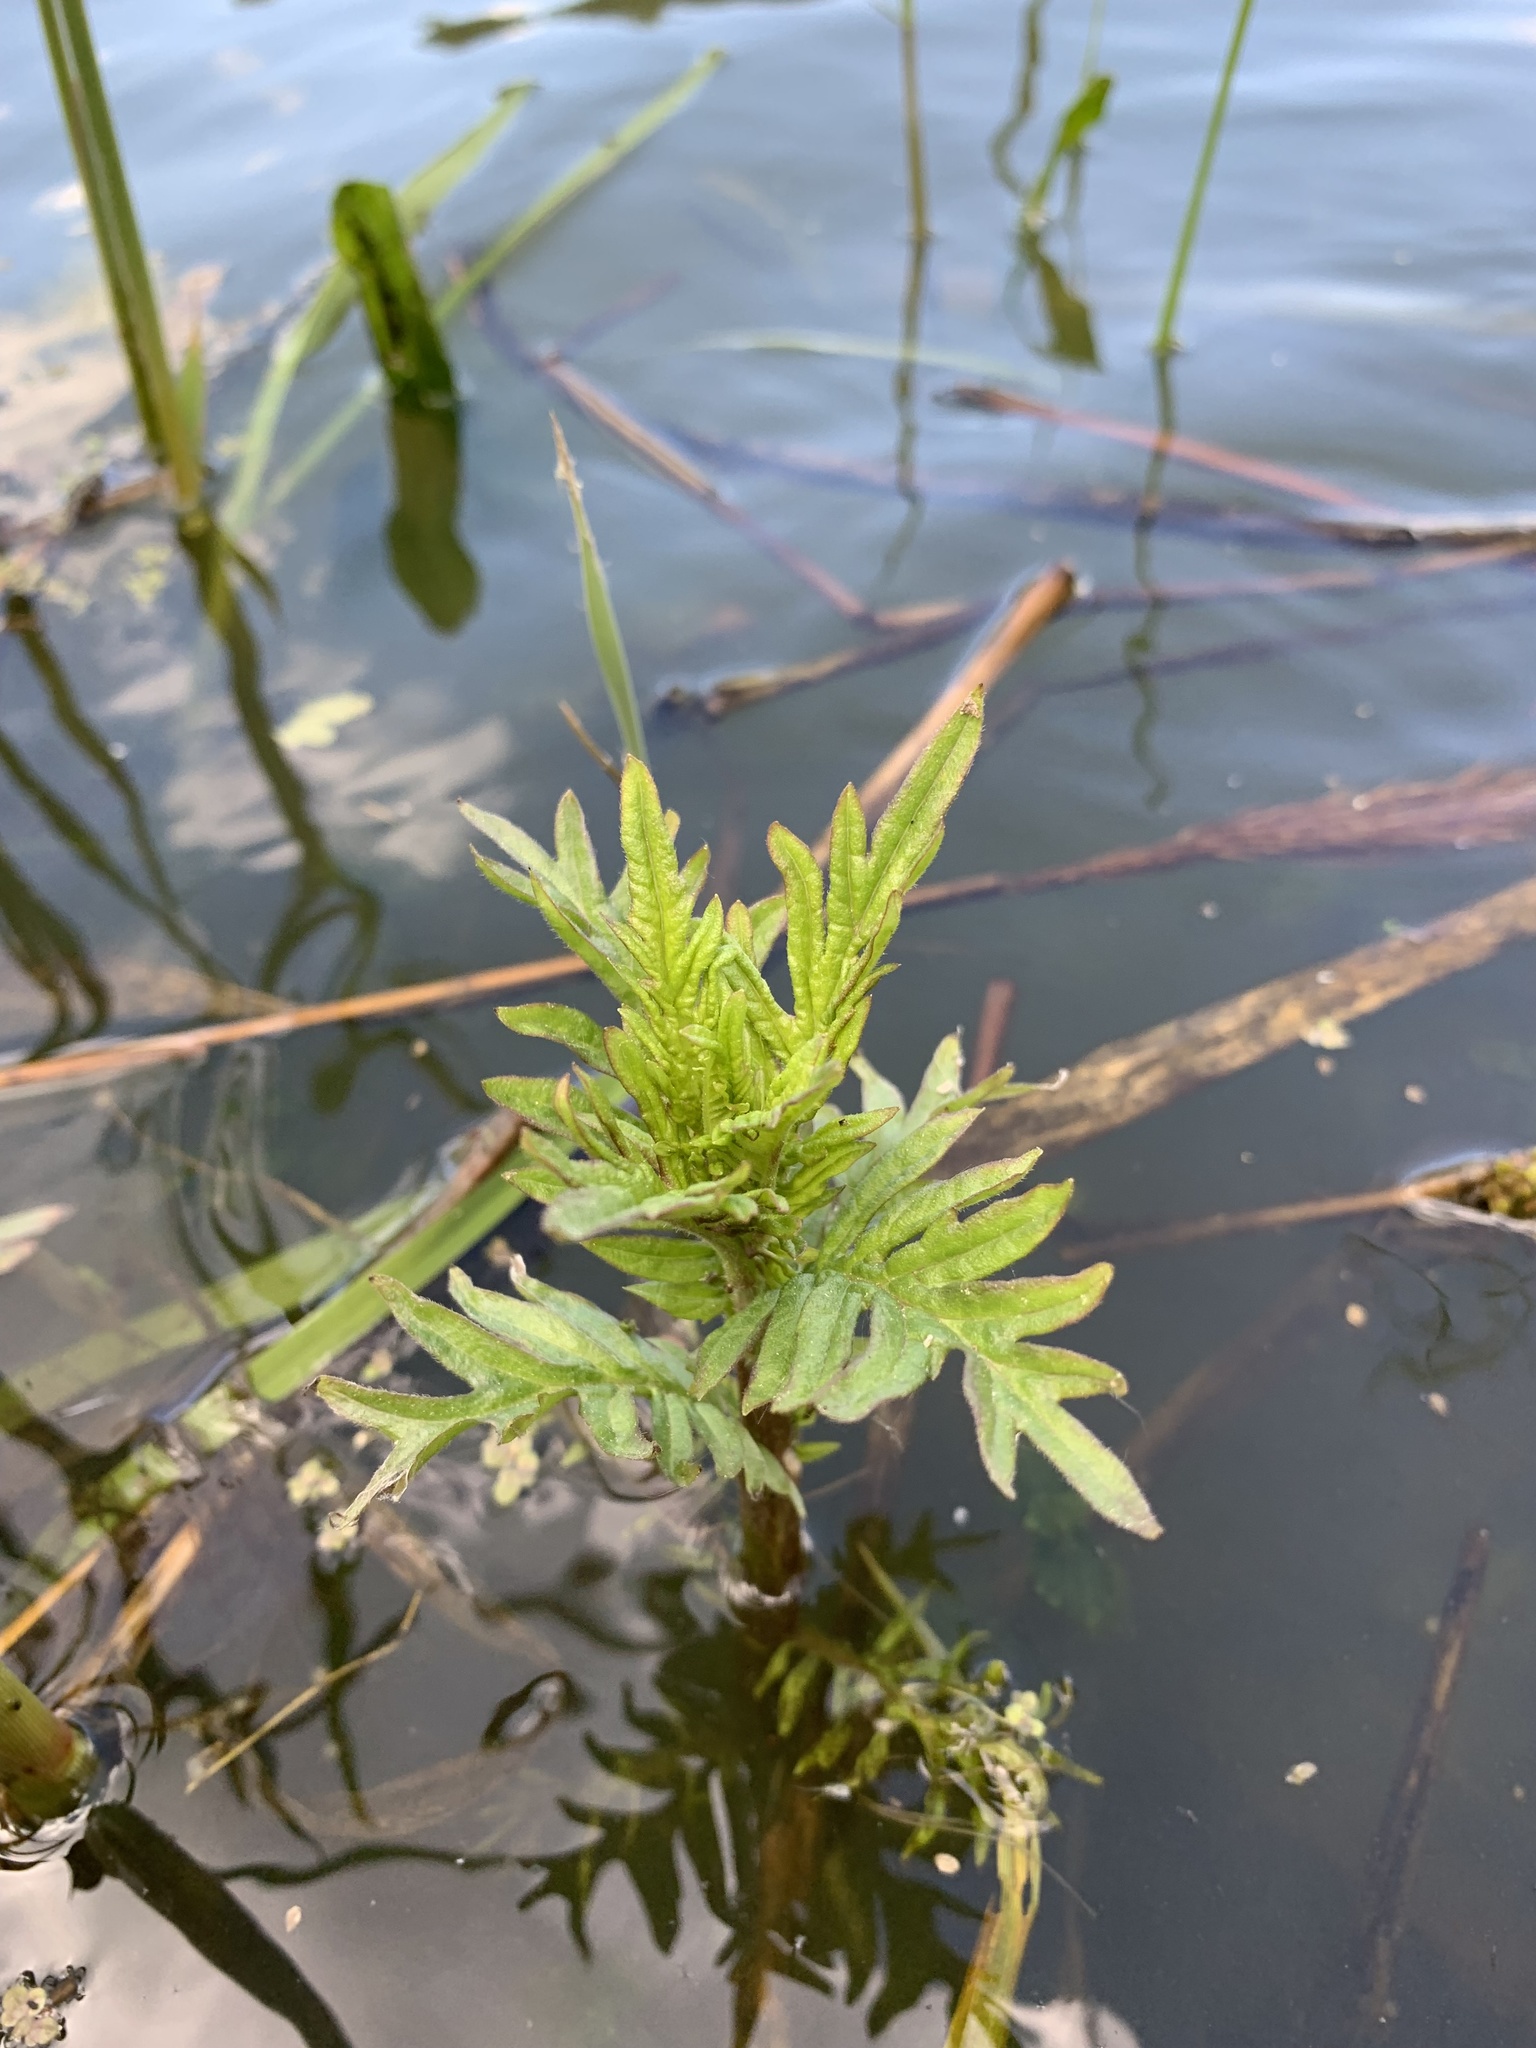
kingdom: Plantae
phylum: Tracheophyta
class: Magnoliopsida
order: Lamiales
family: Lamiaceae
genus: Lycopus
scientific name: Lycopus exaltatus
